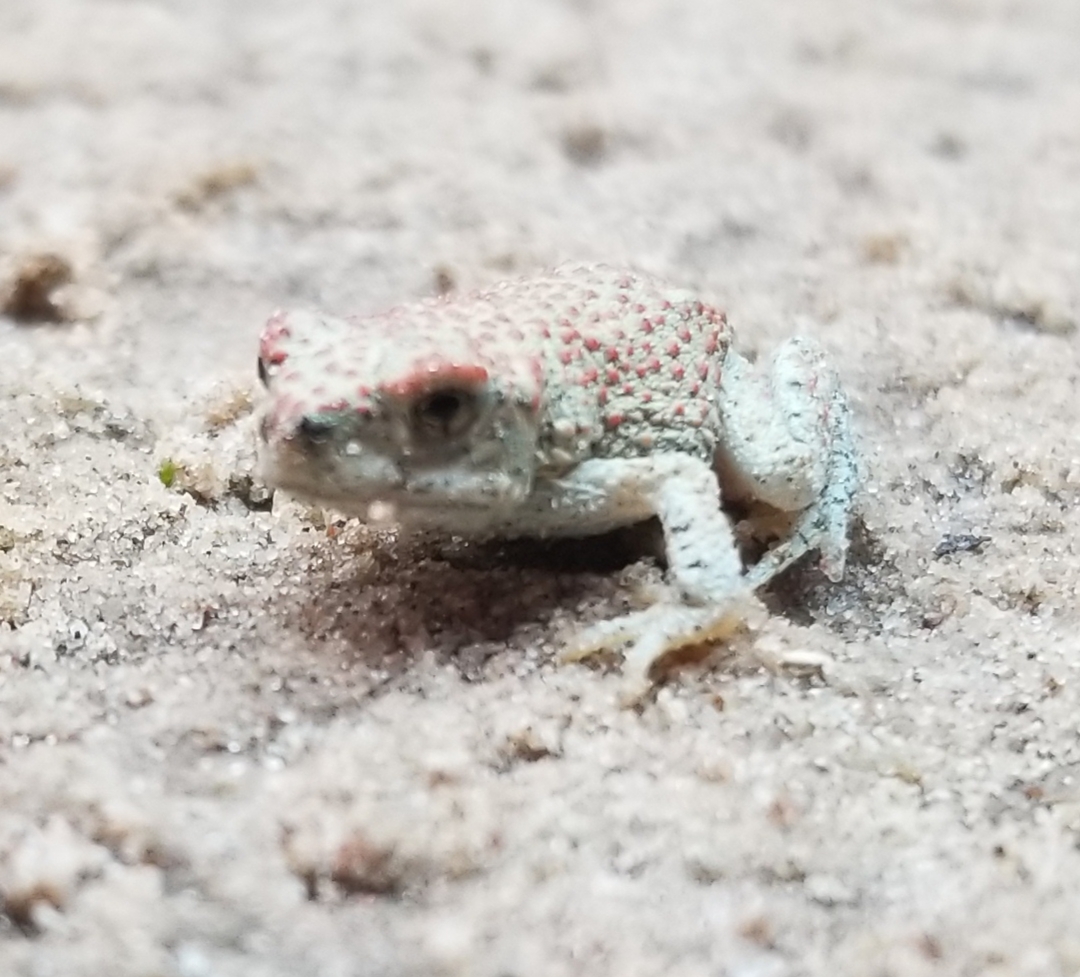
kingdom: Animalia
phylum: Chordata
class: Amphibia
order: Anura
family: Bufonidae
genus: Anaxyrus
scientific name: Anaxyrus punctatus
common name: Red-spotted toad
